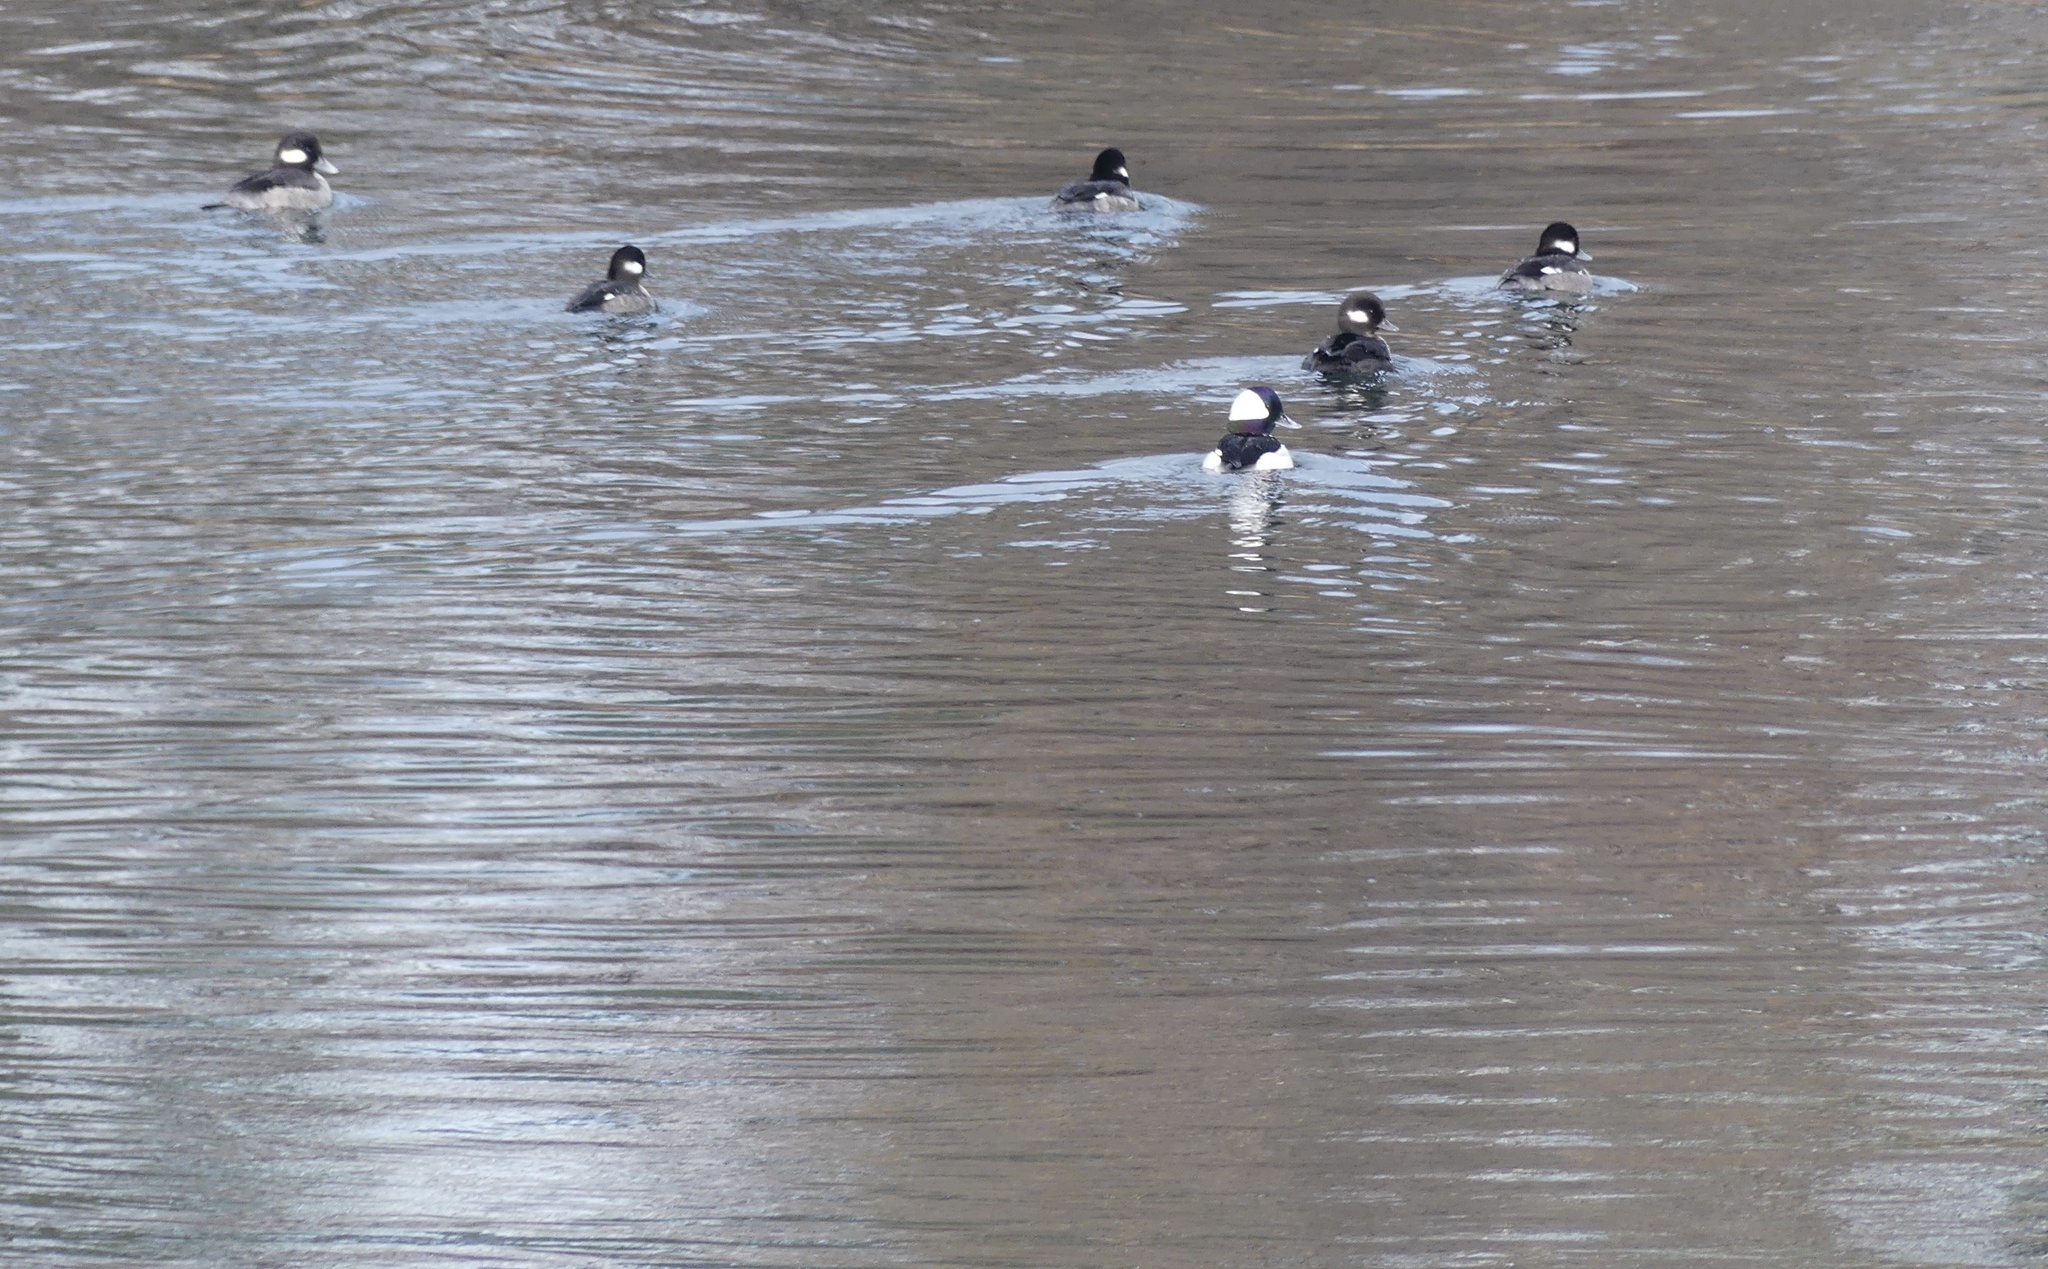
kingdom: Animalia
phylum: Chordata
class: Aves
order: Anseriformes
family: Anatidae
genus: Bucephala
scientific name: Bucephala albeola
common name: Bufflehead
